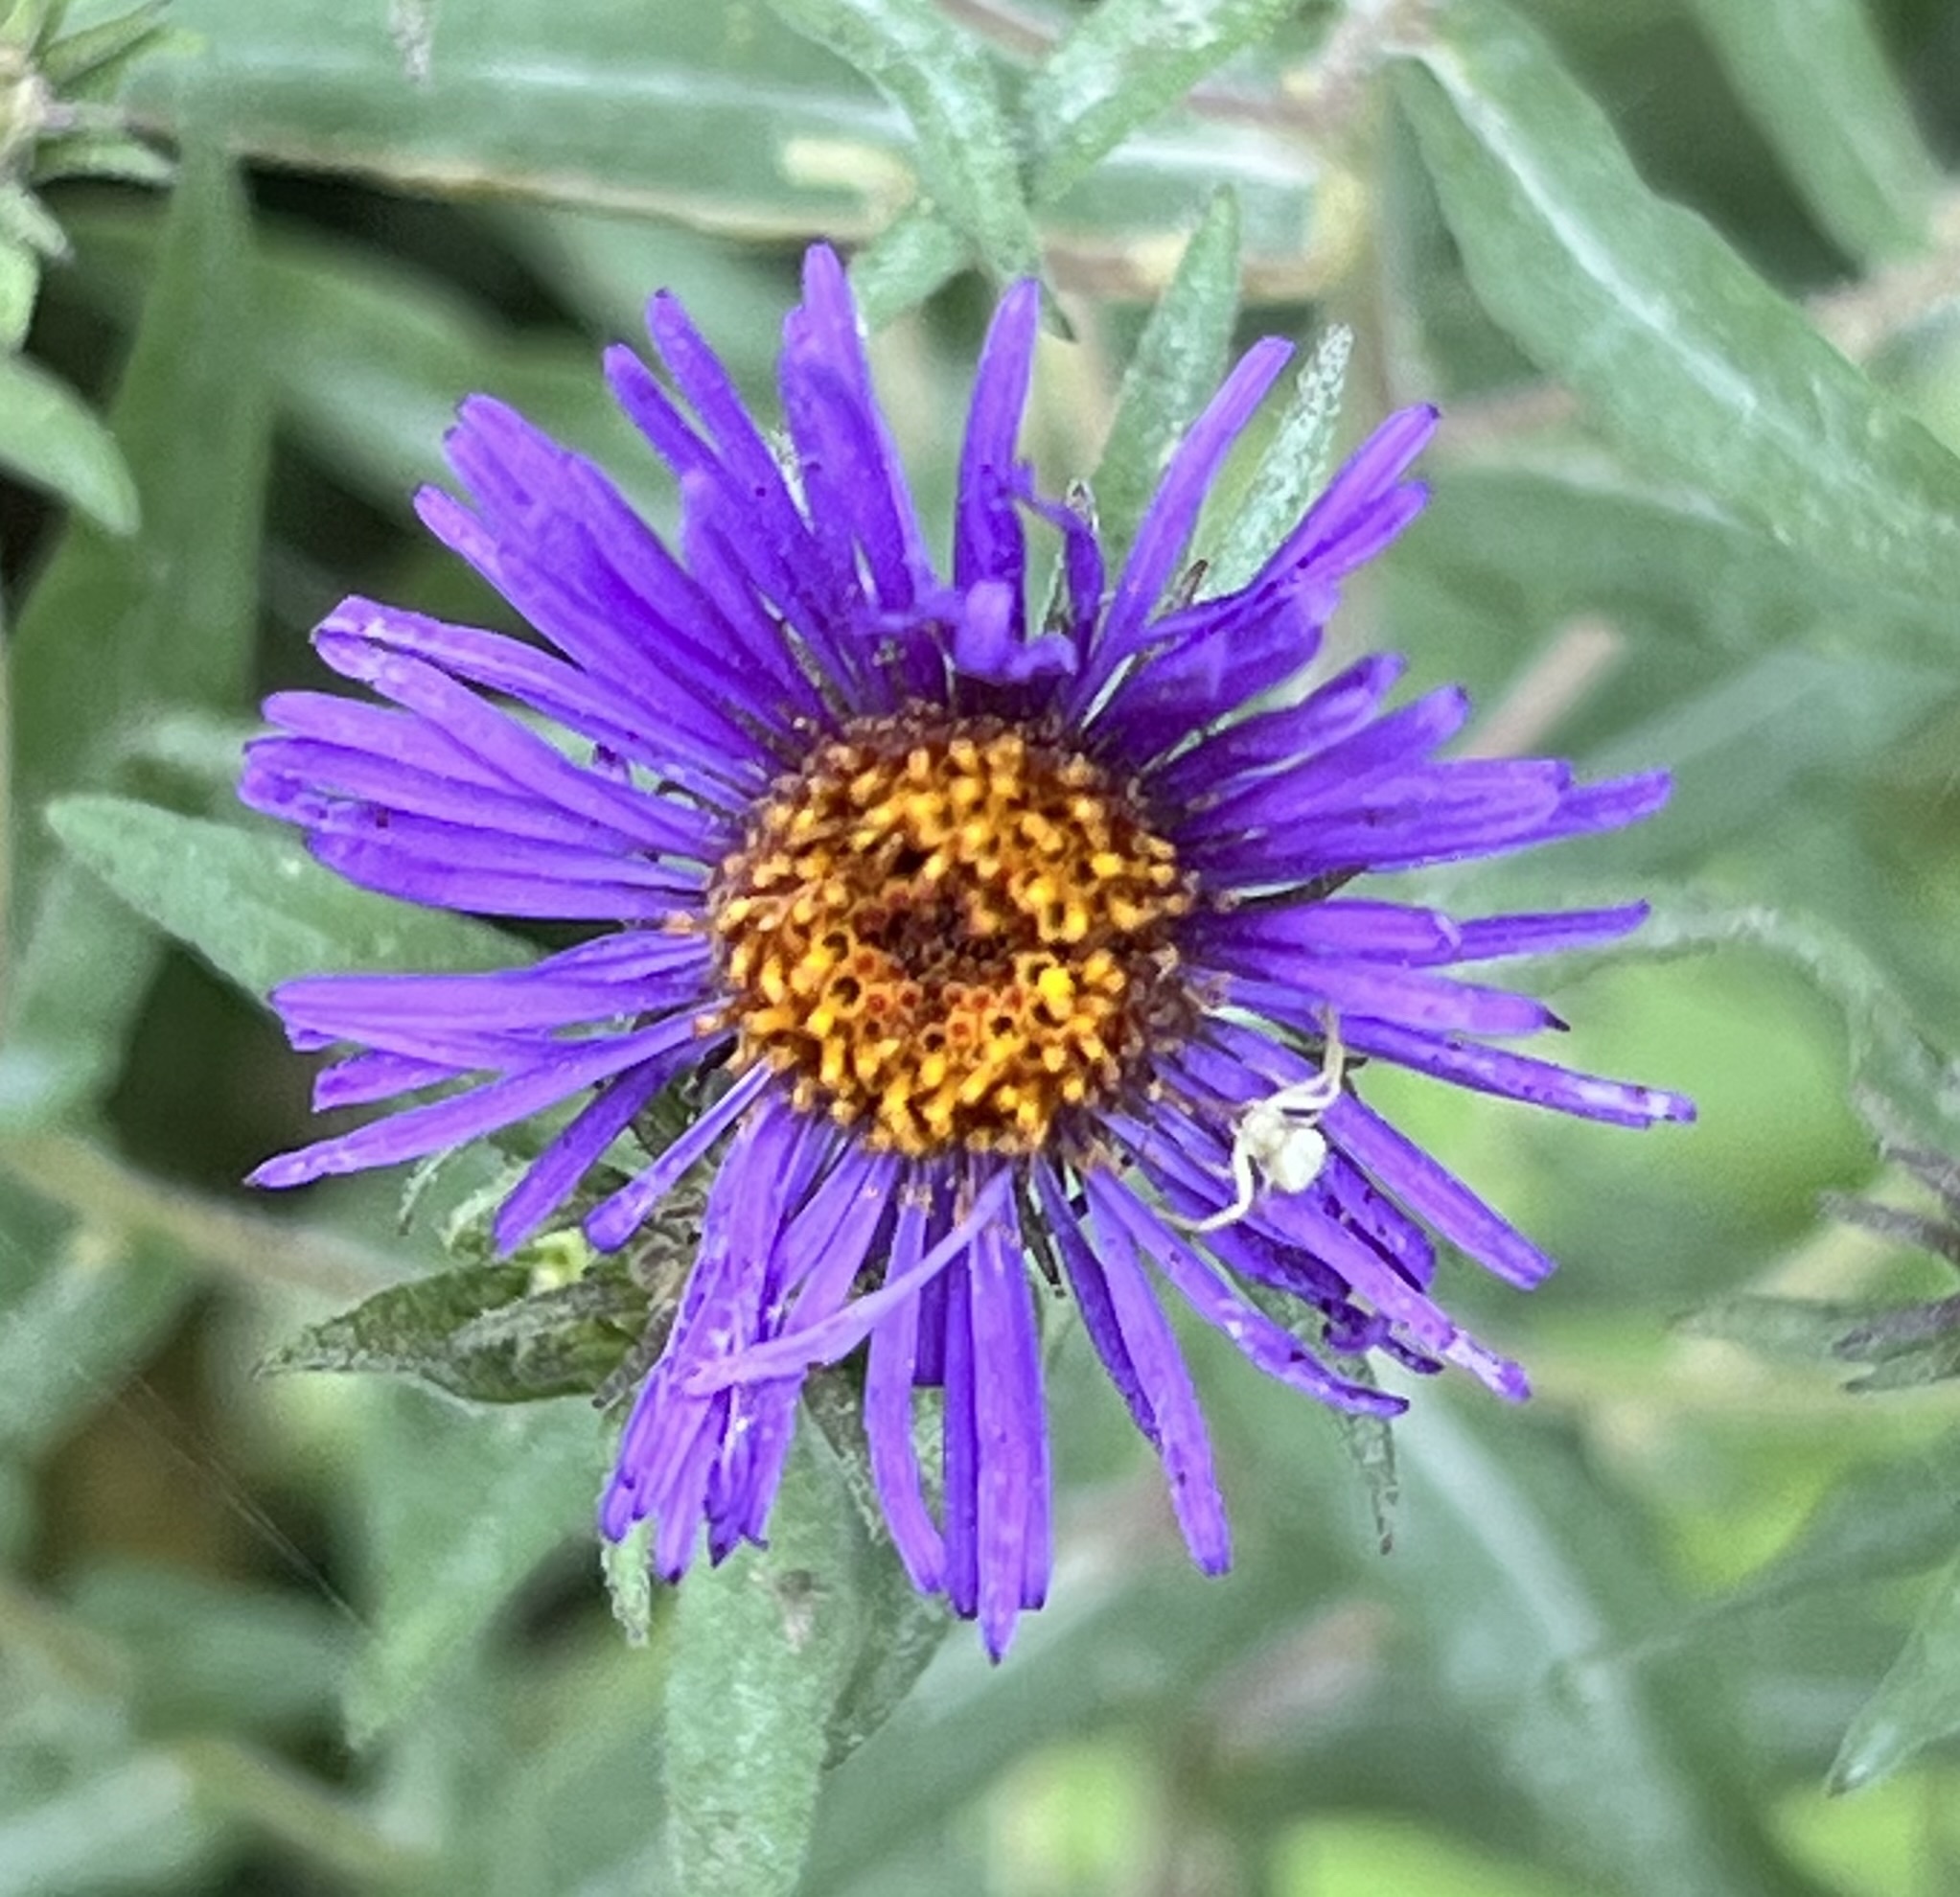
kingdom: Plantae
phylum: Tracheophyta
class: Magnoliopsida
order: Asterales
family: Asteraceae
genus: Symphyotrichum
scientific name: Symphyotrichum novae-angliae
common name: Michaelmas daisy
